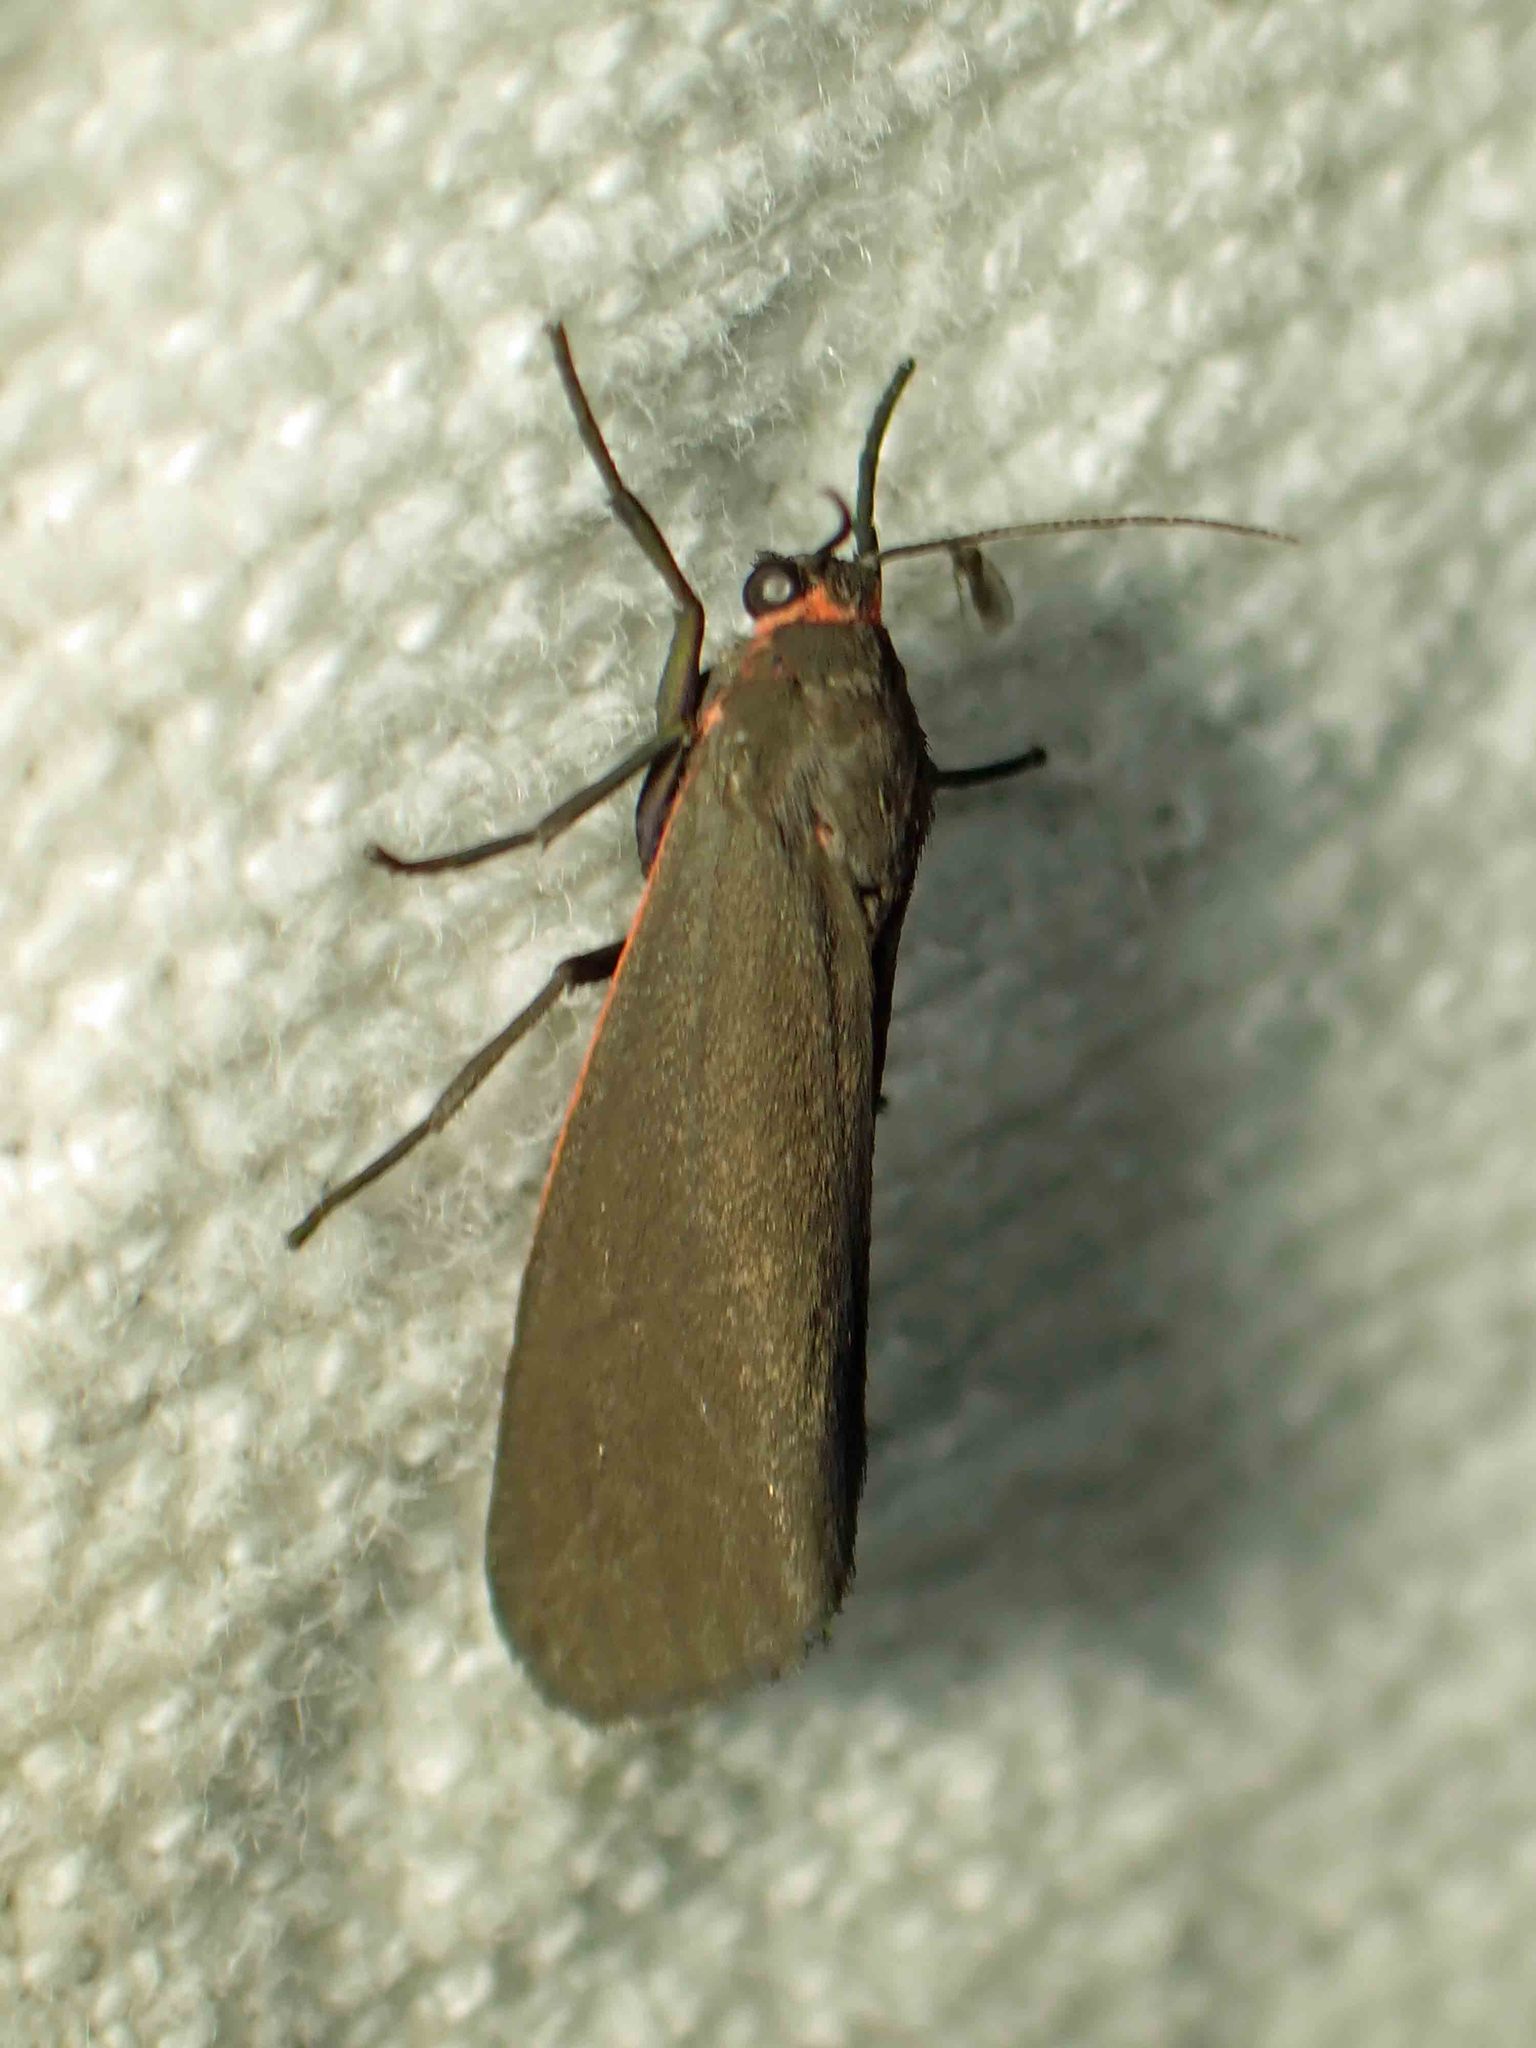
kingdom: Animalia
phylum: Arthropoda
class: Insecta
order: Lepidoptera
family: Erebidae
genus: Virbia
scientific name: Virbia laeta
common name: Joyful holomelina moth
